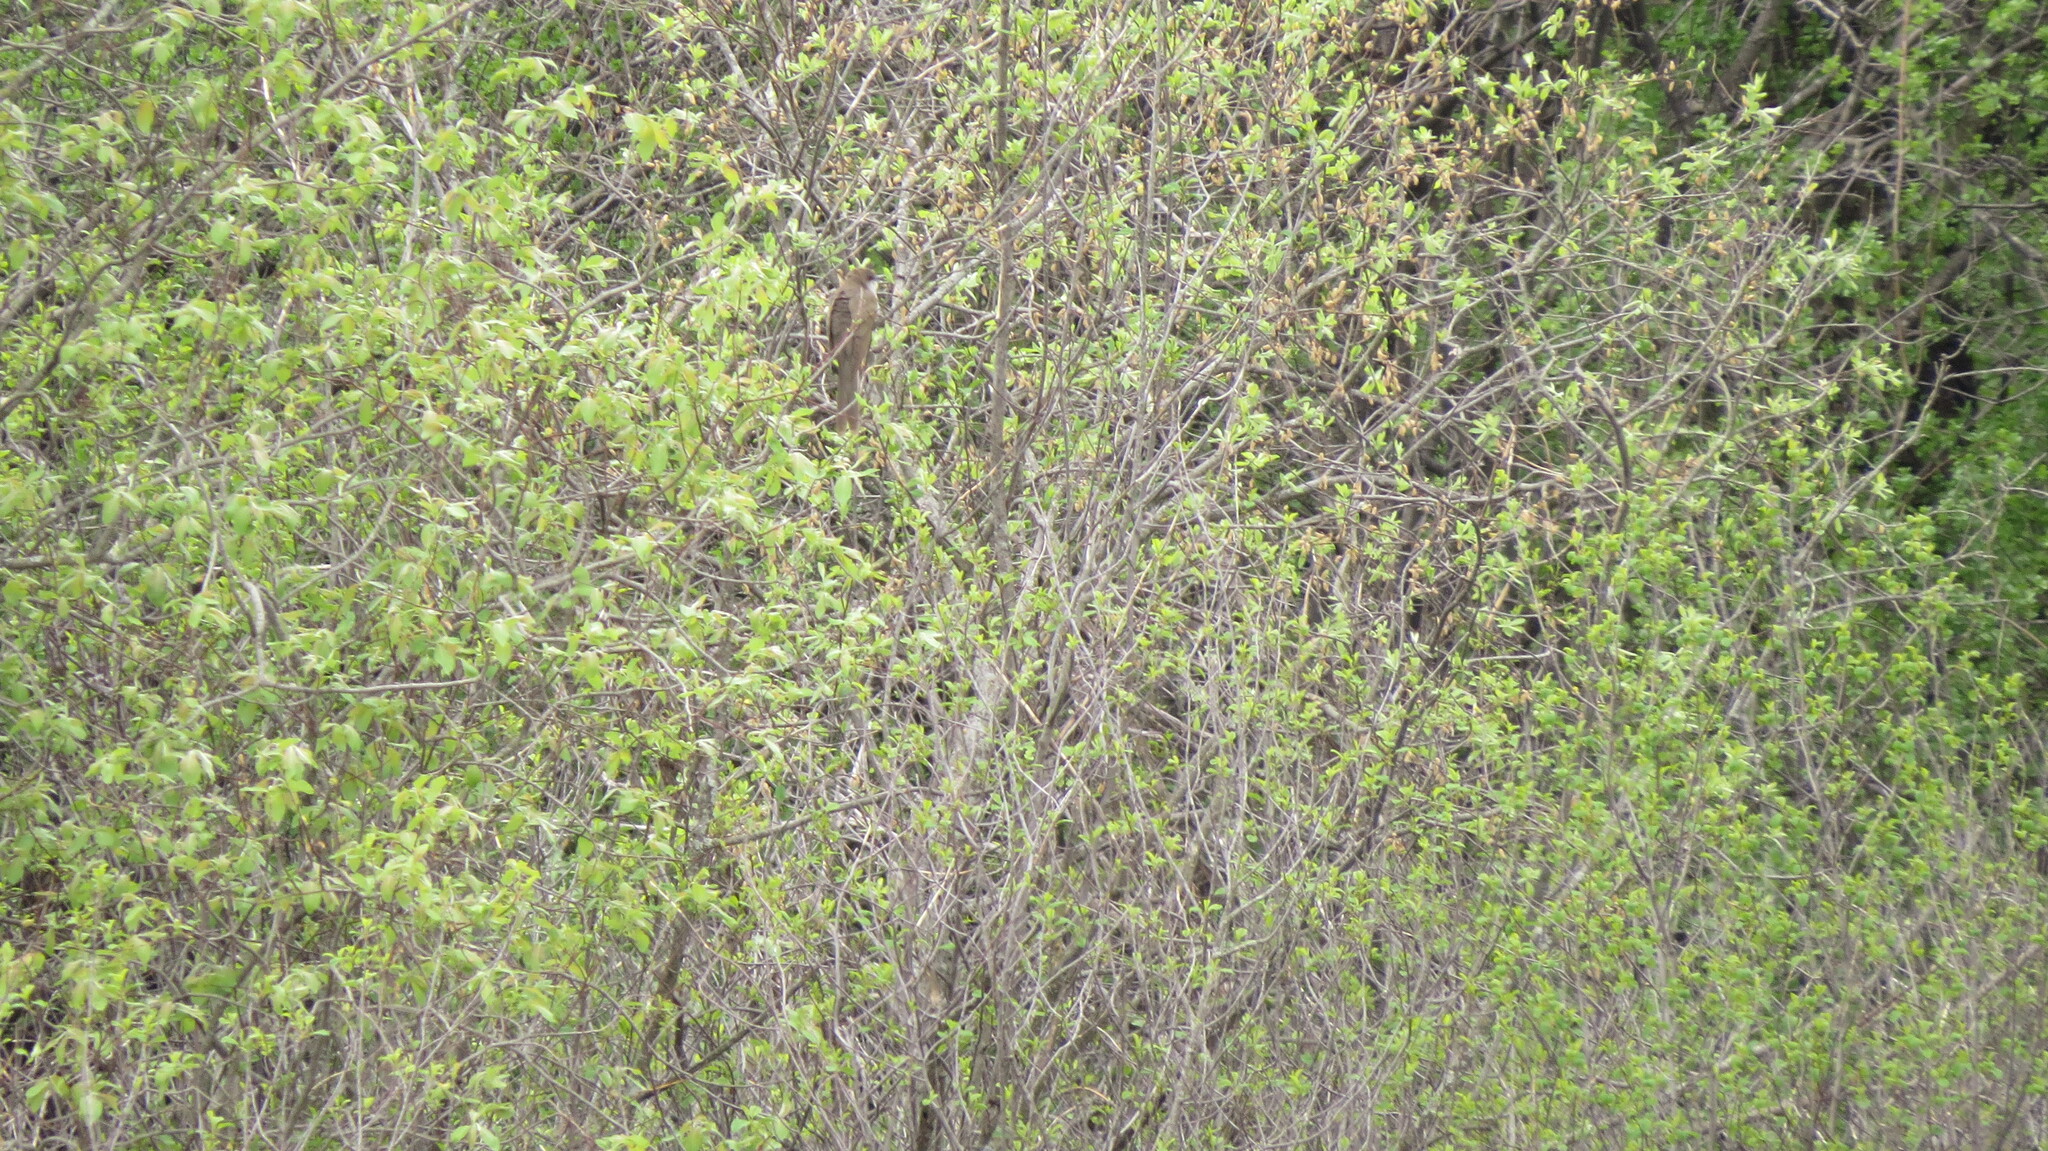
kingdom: Animalia
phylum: Chordata
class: Aves
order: Cuculiformes
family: Cuculidae
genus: Coccyzus
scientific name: Coccyzus erythropthalmus
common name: Black-billed cuckoo
